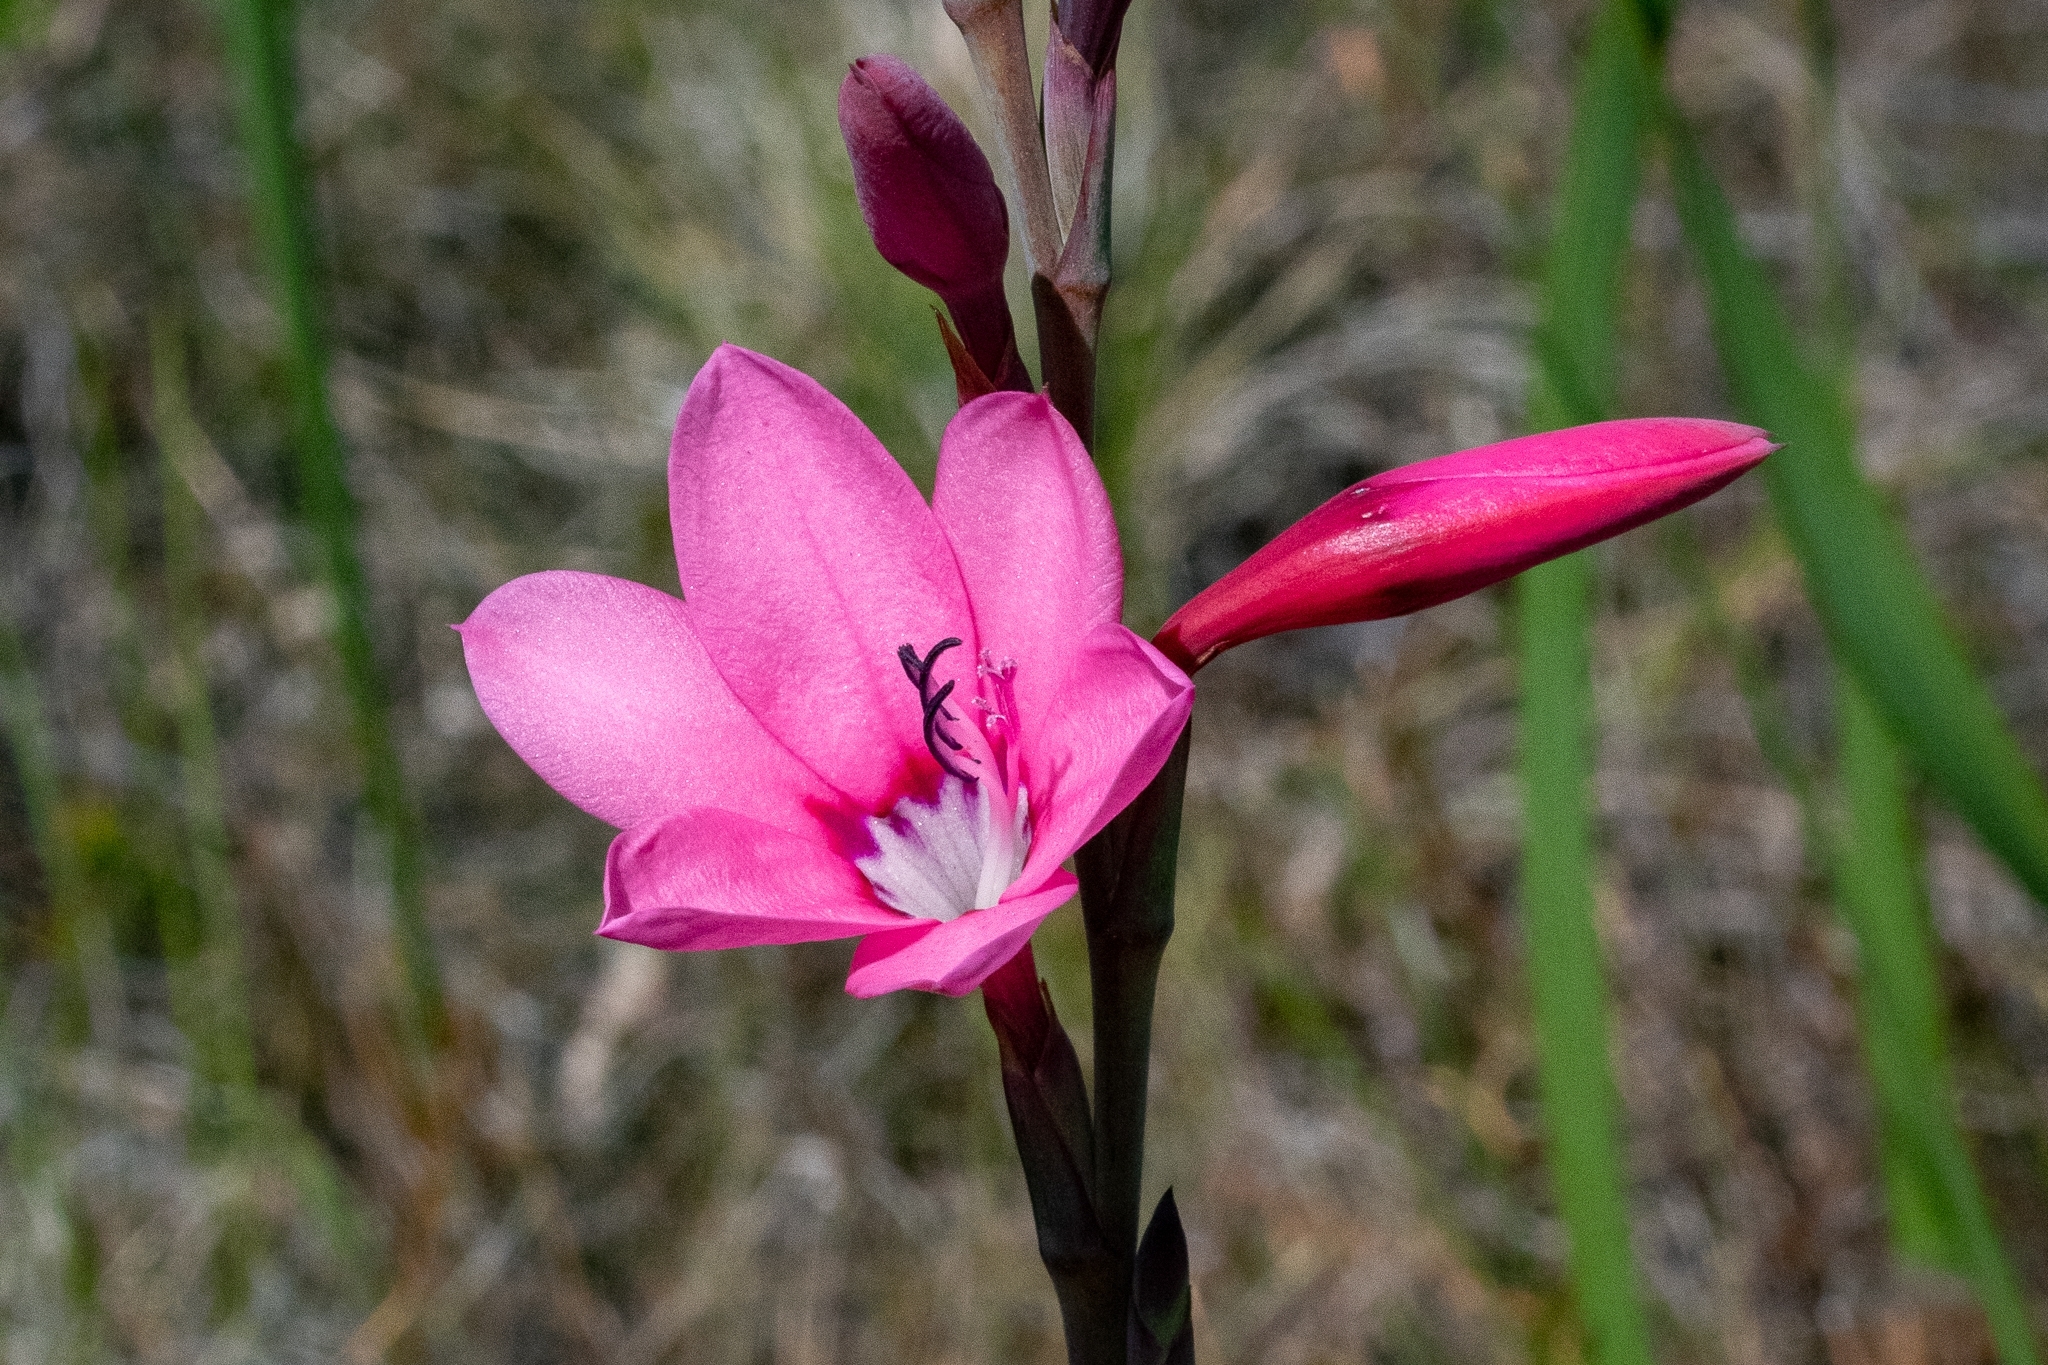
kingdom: Plantae
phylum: Tracheophyta
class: Liliopsida
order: Asparagales
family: Iridaceae
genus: Watsonia
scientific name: Watsonia borbonica
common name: Bugle-lily
